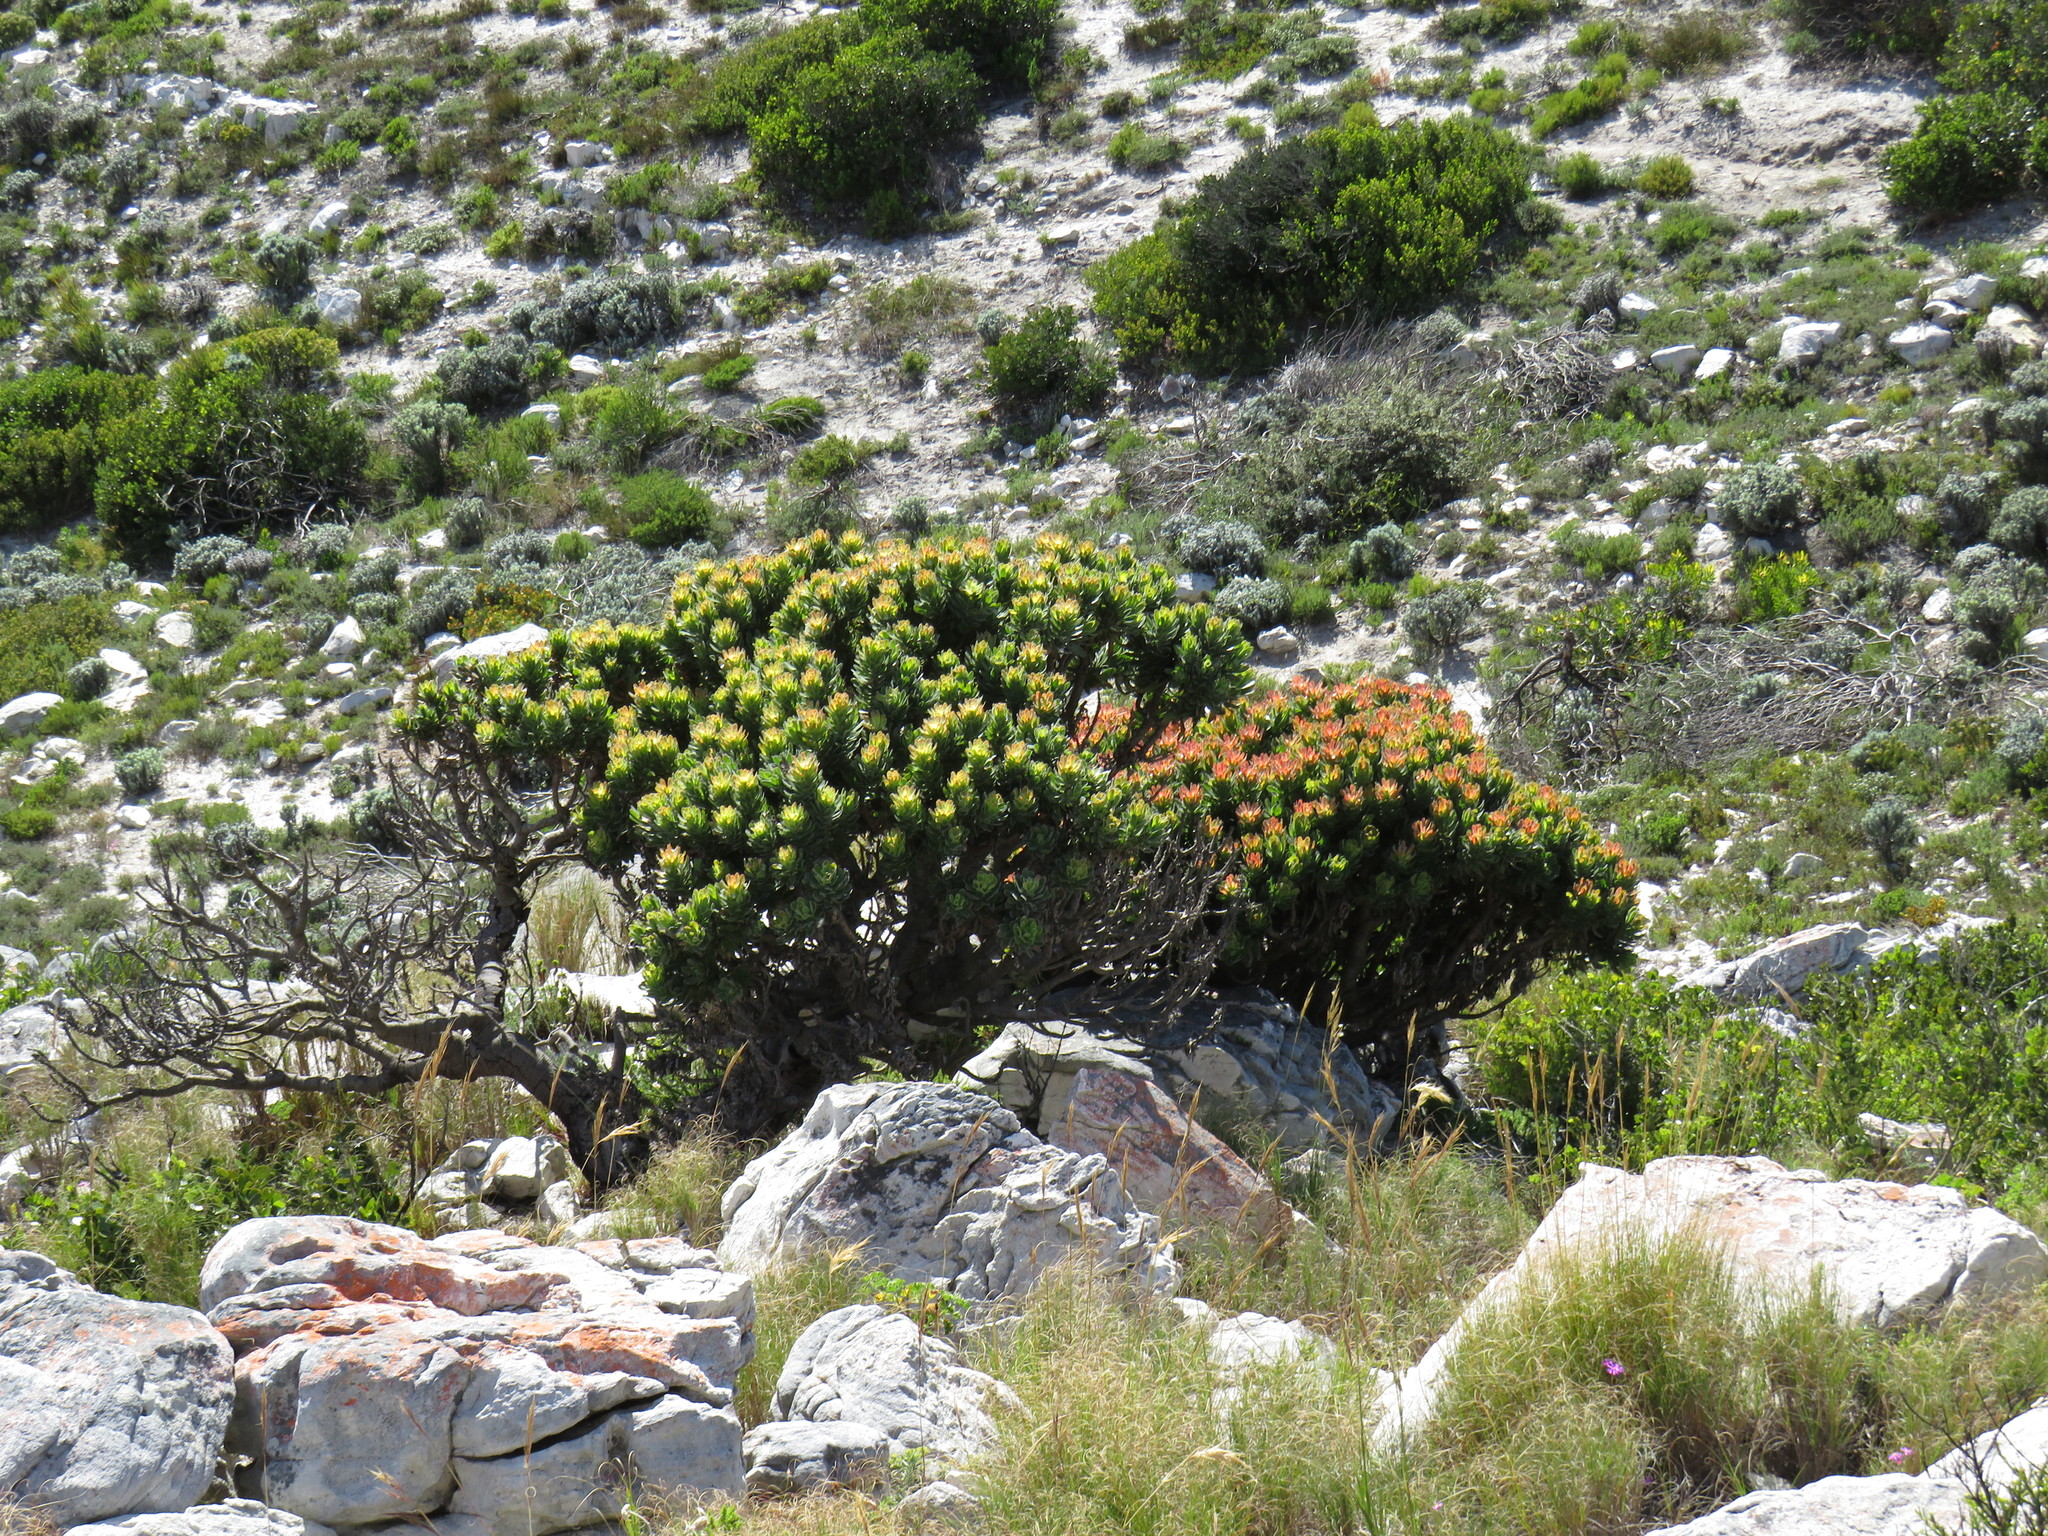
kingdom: Plantae
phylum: Tracheophyta
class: Magnoliopsida
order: Proteales
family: Proteaceae
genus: Mimetes
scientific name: Mimetes fimbriifolius
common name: Fringed bottlebrush
